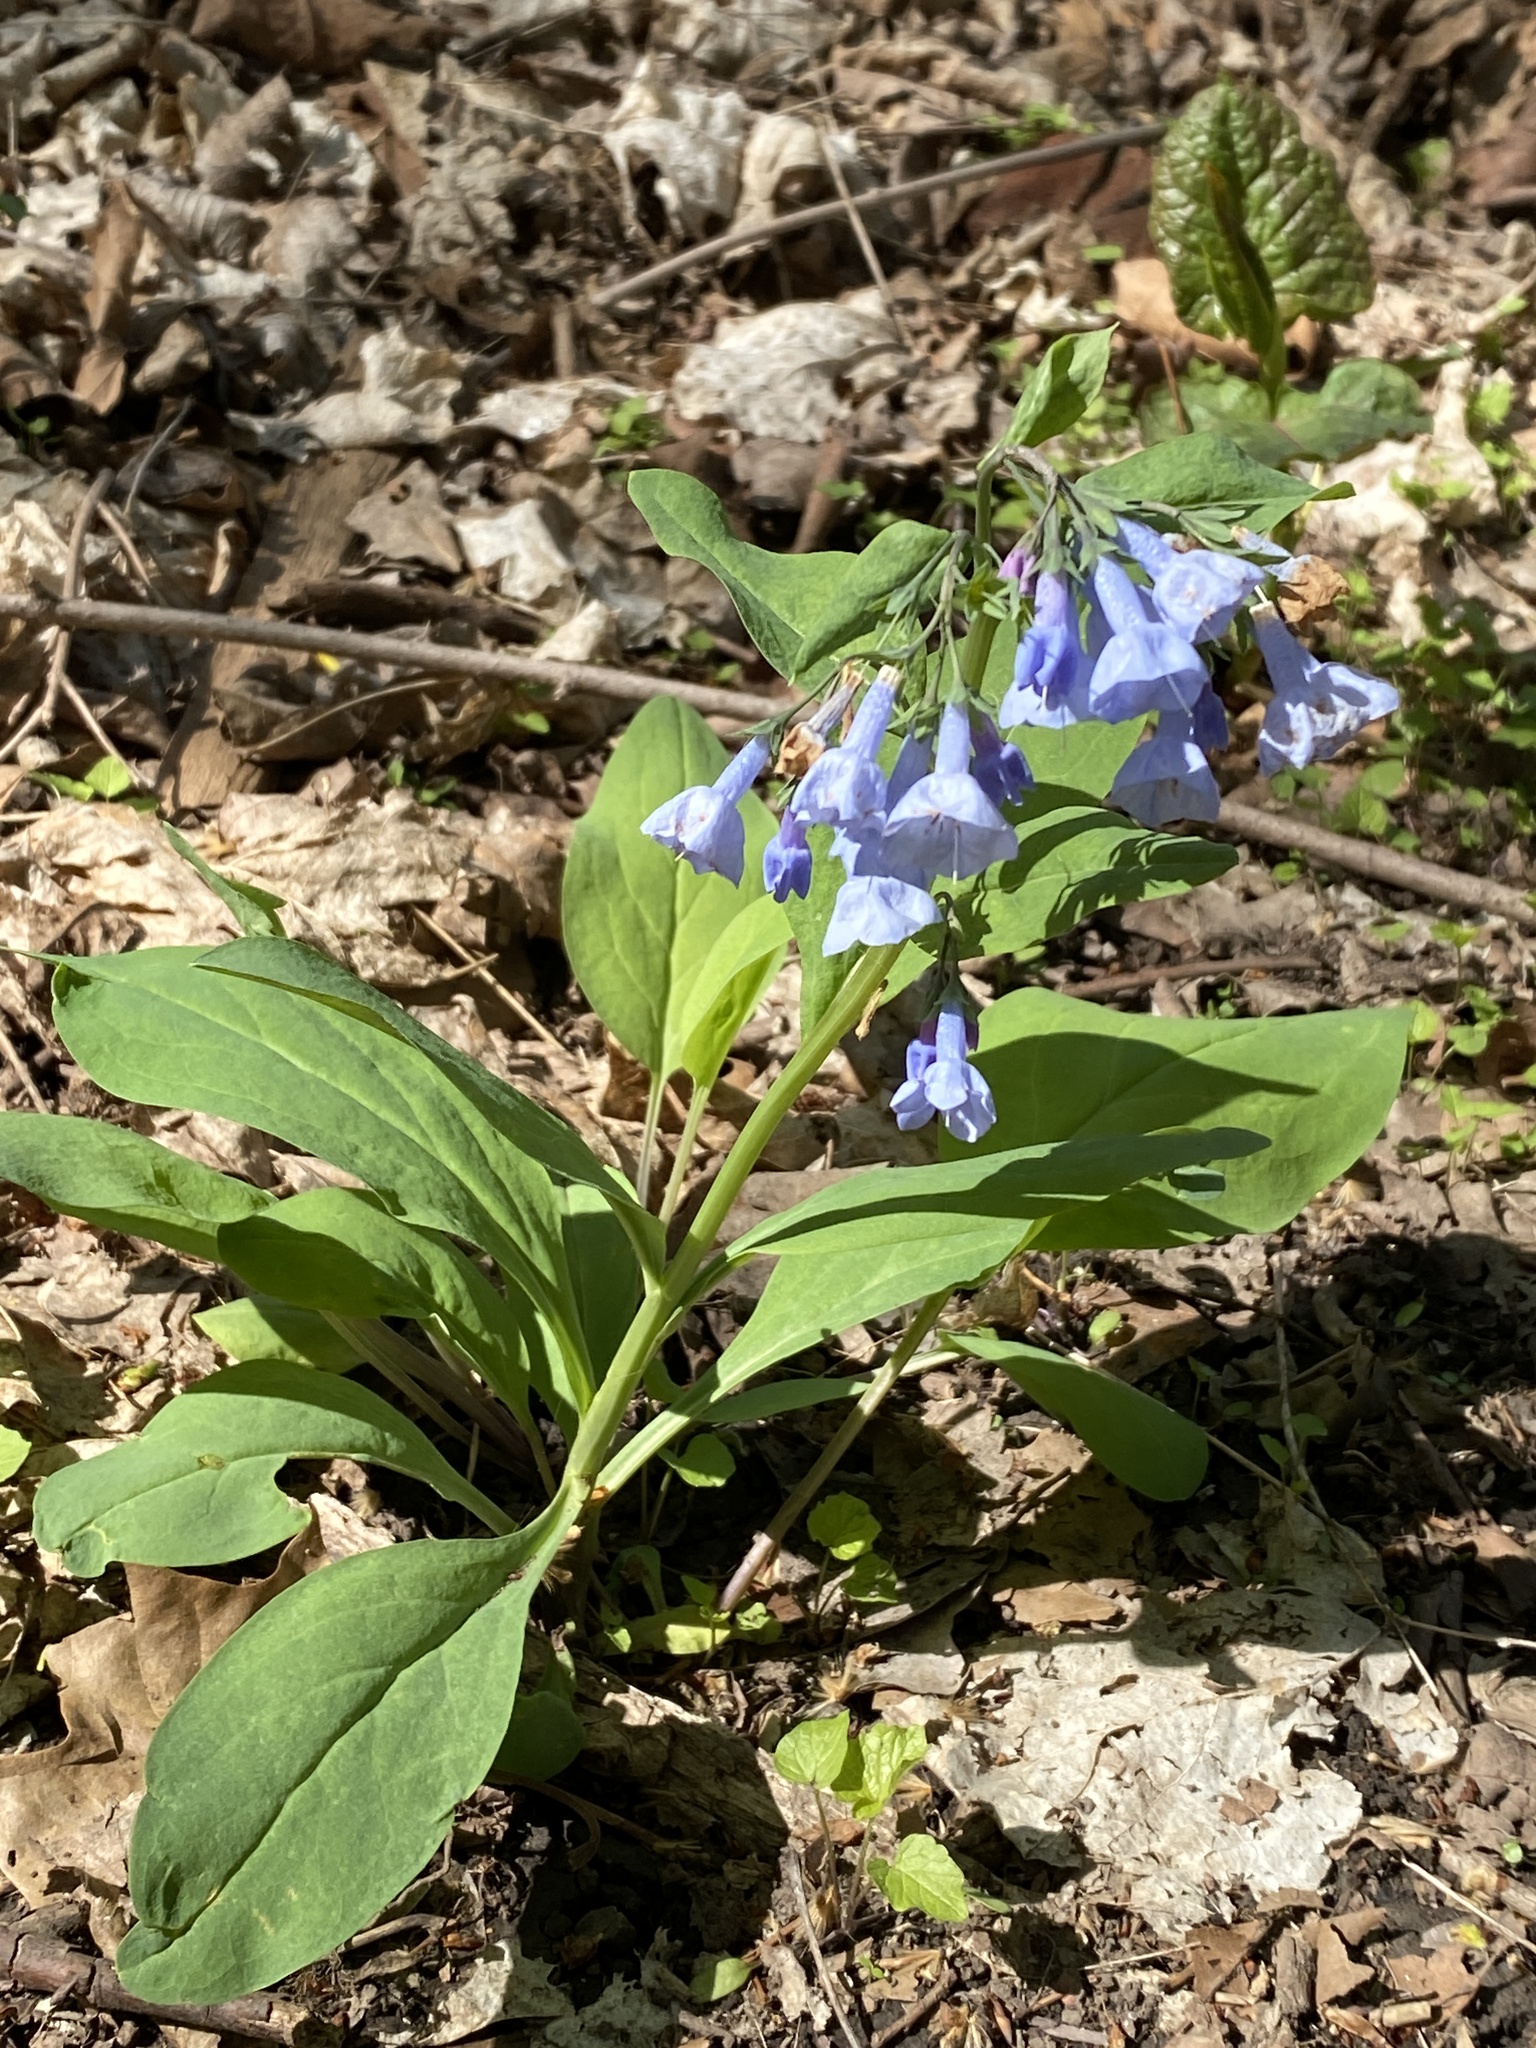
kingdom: Plantae
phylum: Tracheophyta
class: Magnoliopsida
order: Boraginales
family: Boraginaceae
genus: Mertensia
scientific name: Mertensia virginica
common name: Virginia bluebells
